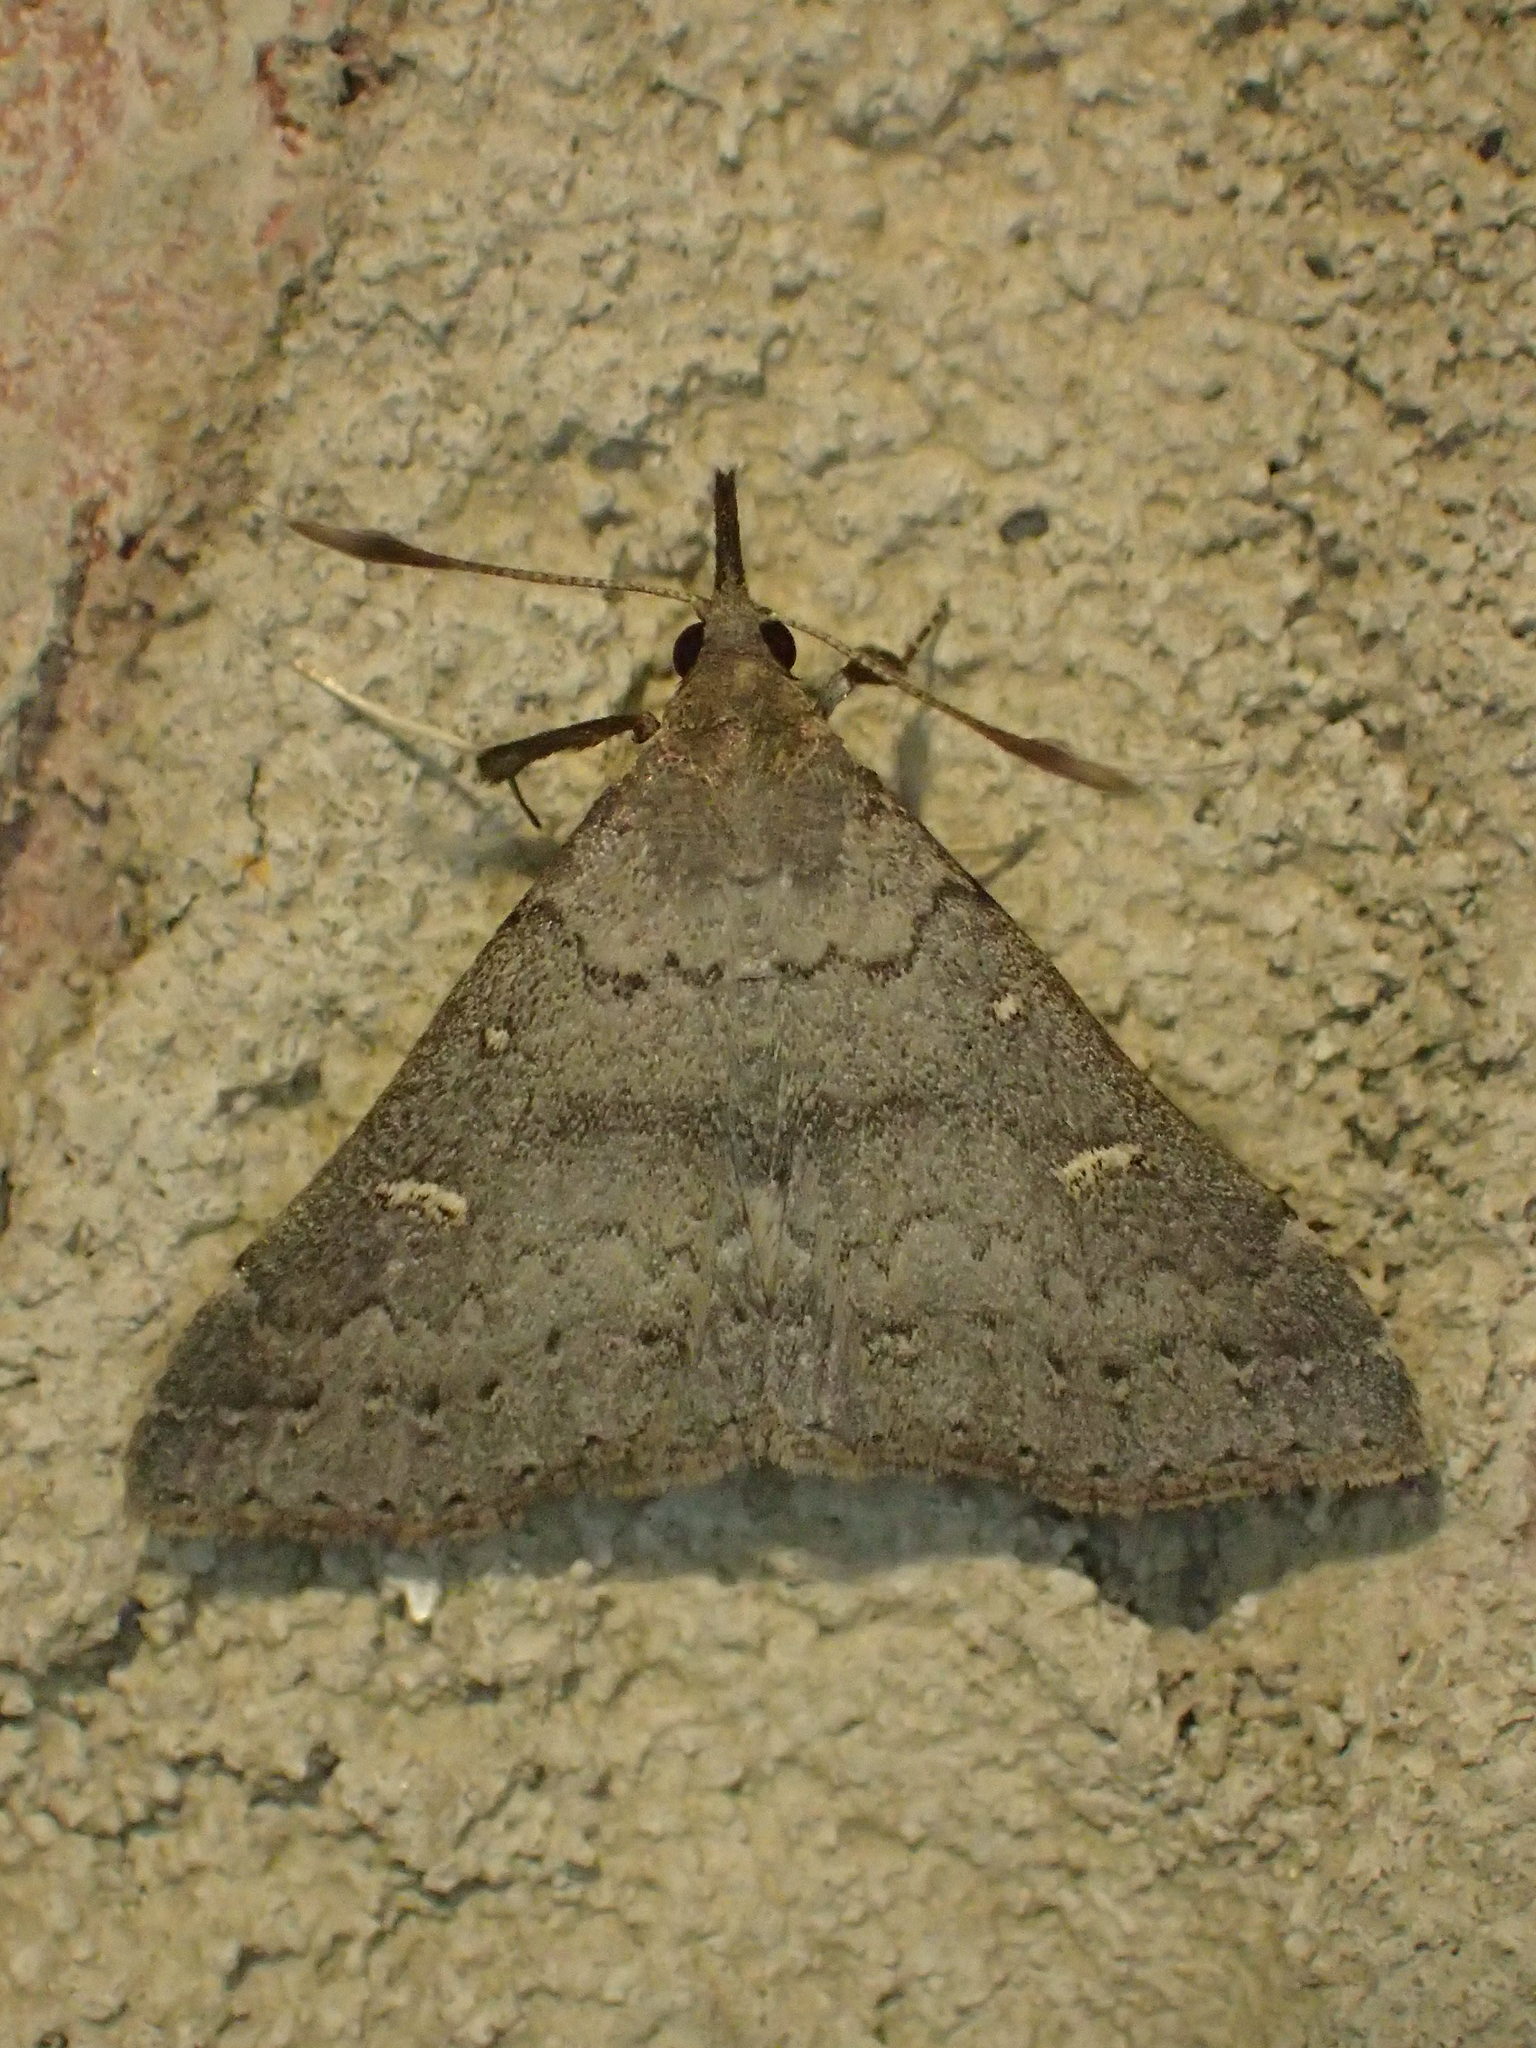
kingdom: Animalia
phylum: Arthropoda
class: Insecta
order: Lepidoptera
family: Erebidae
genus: Renia
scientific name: Renia sobrialis
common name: Sober renia moth
